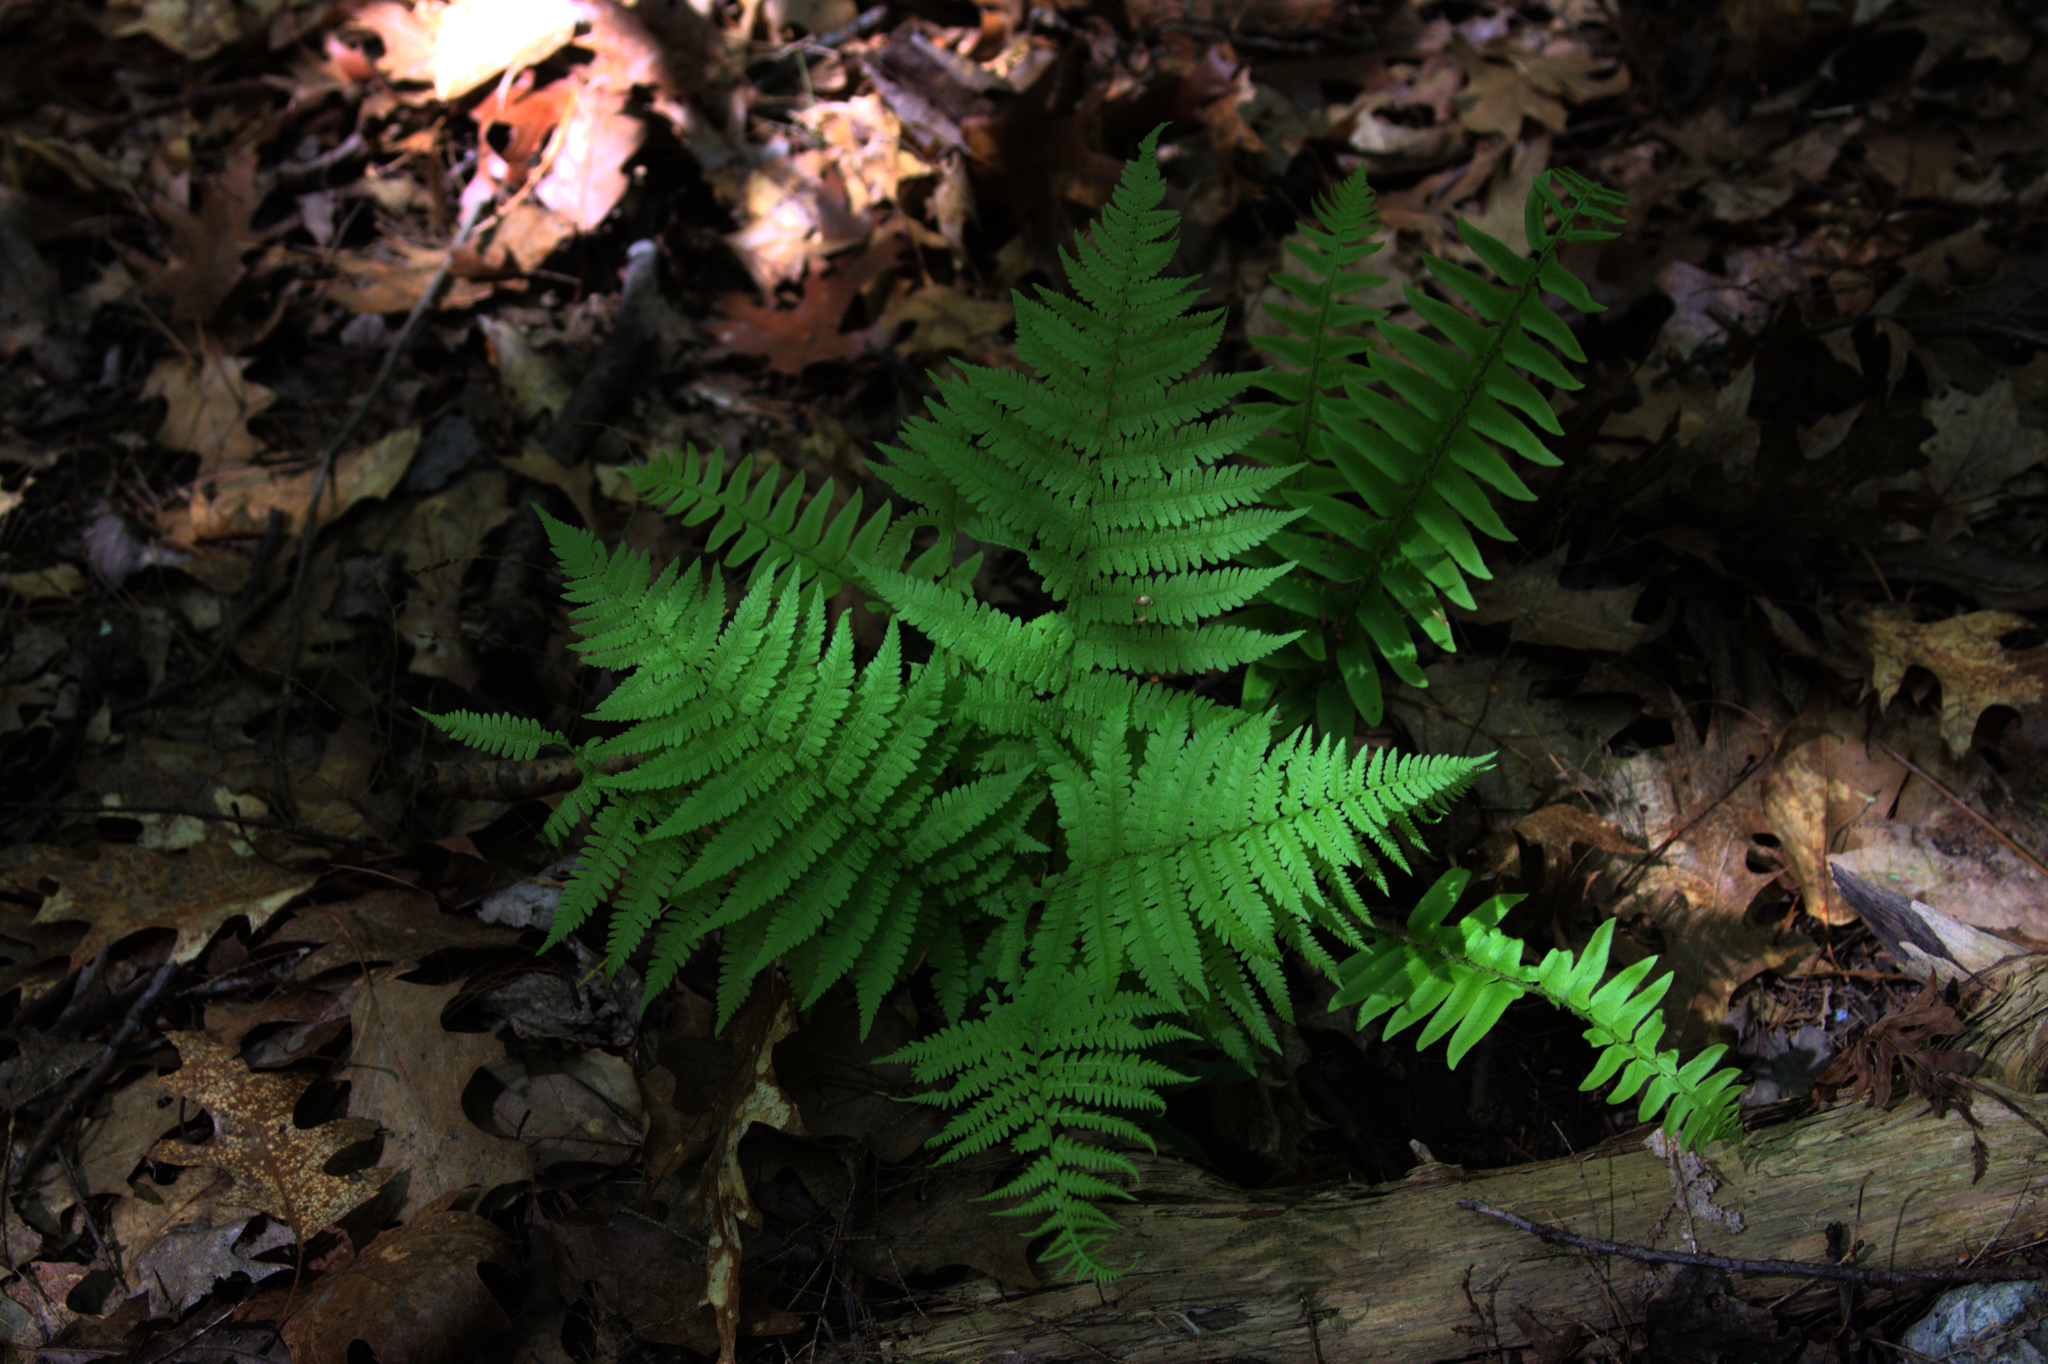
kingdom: Plantae
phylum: Tracheophyta
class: Polypodiopsida
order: Polypodiales
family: Athyriaceae
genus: Athyrium
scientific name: Athyrium angustum
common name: Northern lady fern
